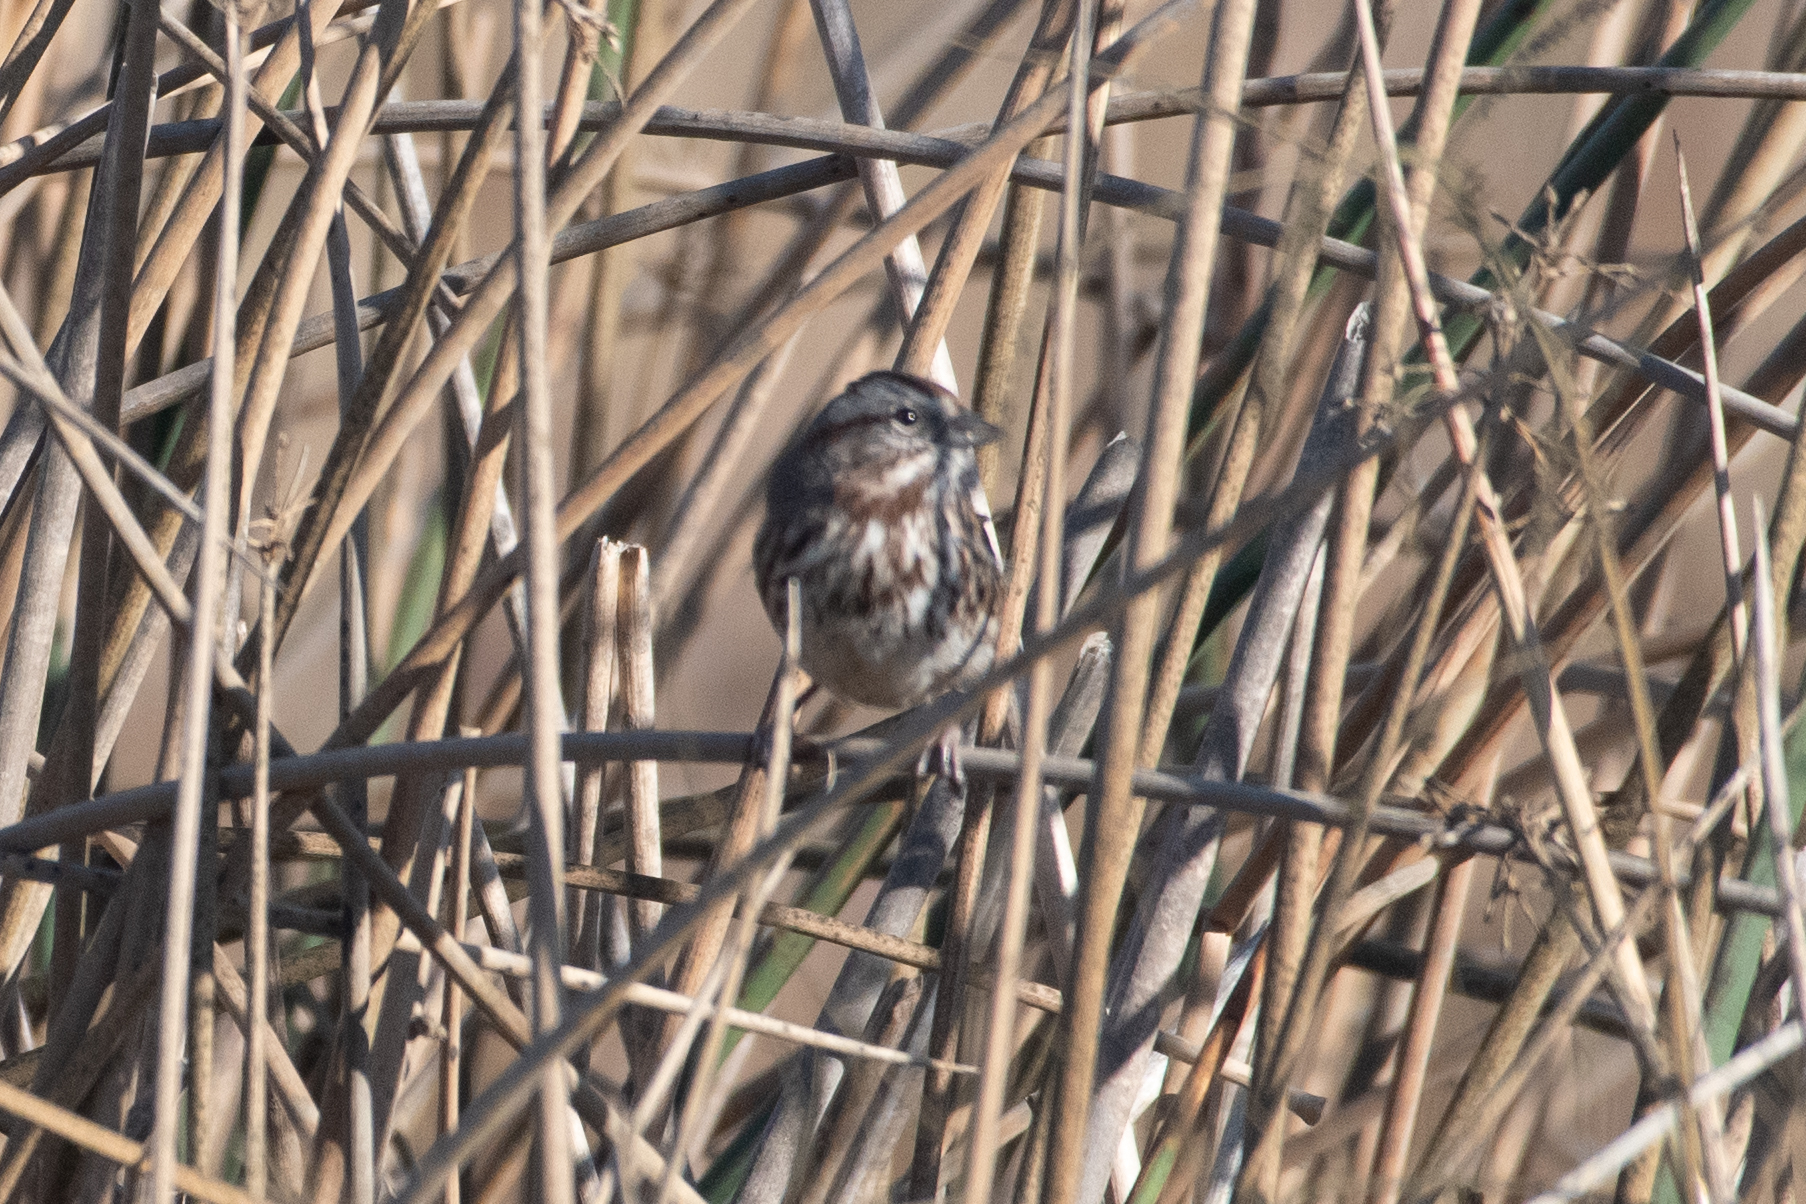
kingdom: Animalia
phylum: Chordata
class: Aves
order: Passeriformes
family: Passerellidae
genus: Melospiza
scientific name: Melospiza melodia
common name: Song sparrow
